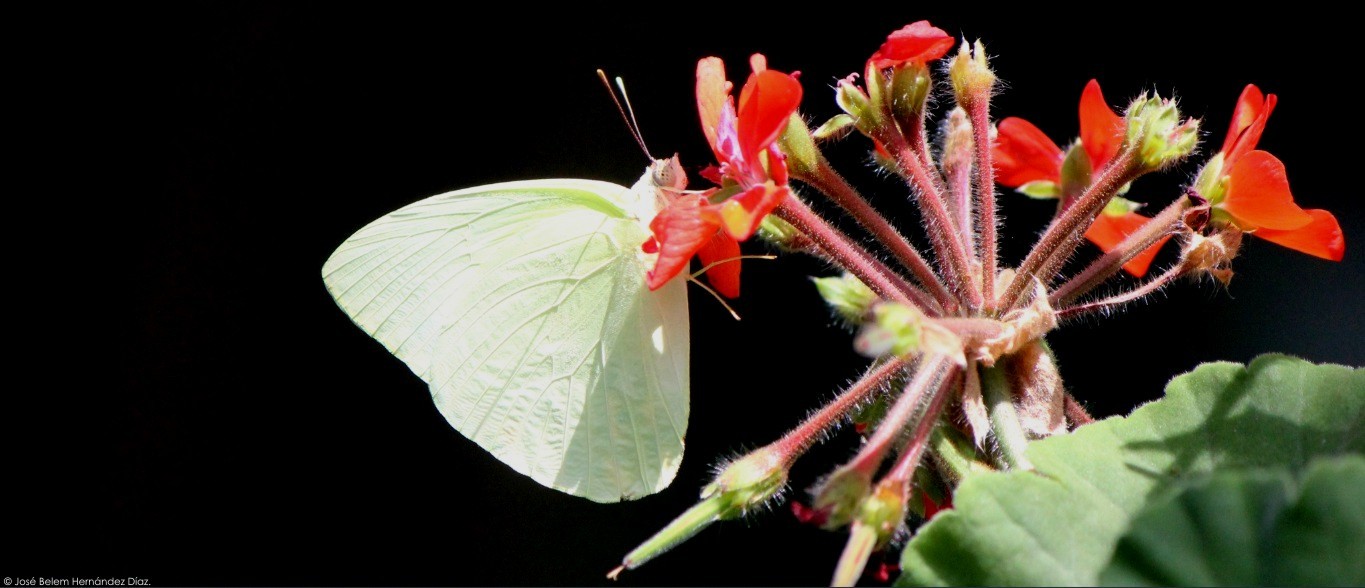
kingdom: Animalia
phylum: Arthropoda
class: Insecta
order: Lepidoptera
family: Pieridae
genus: Aphrissa
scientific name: Aphrissa statira
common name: Statira sulphur
